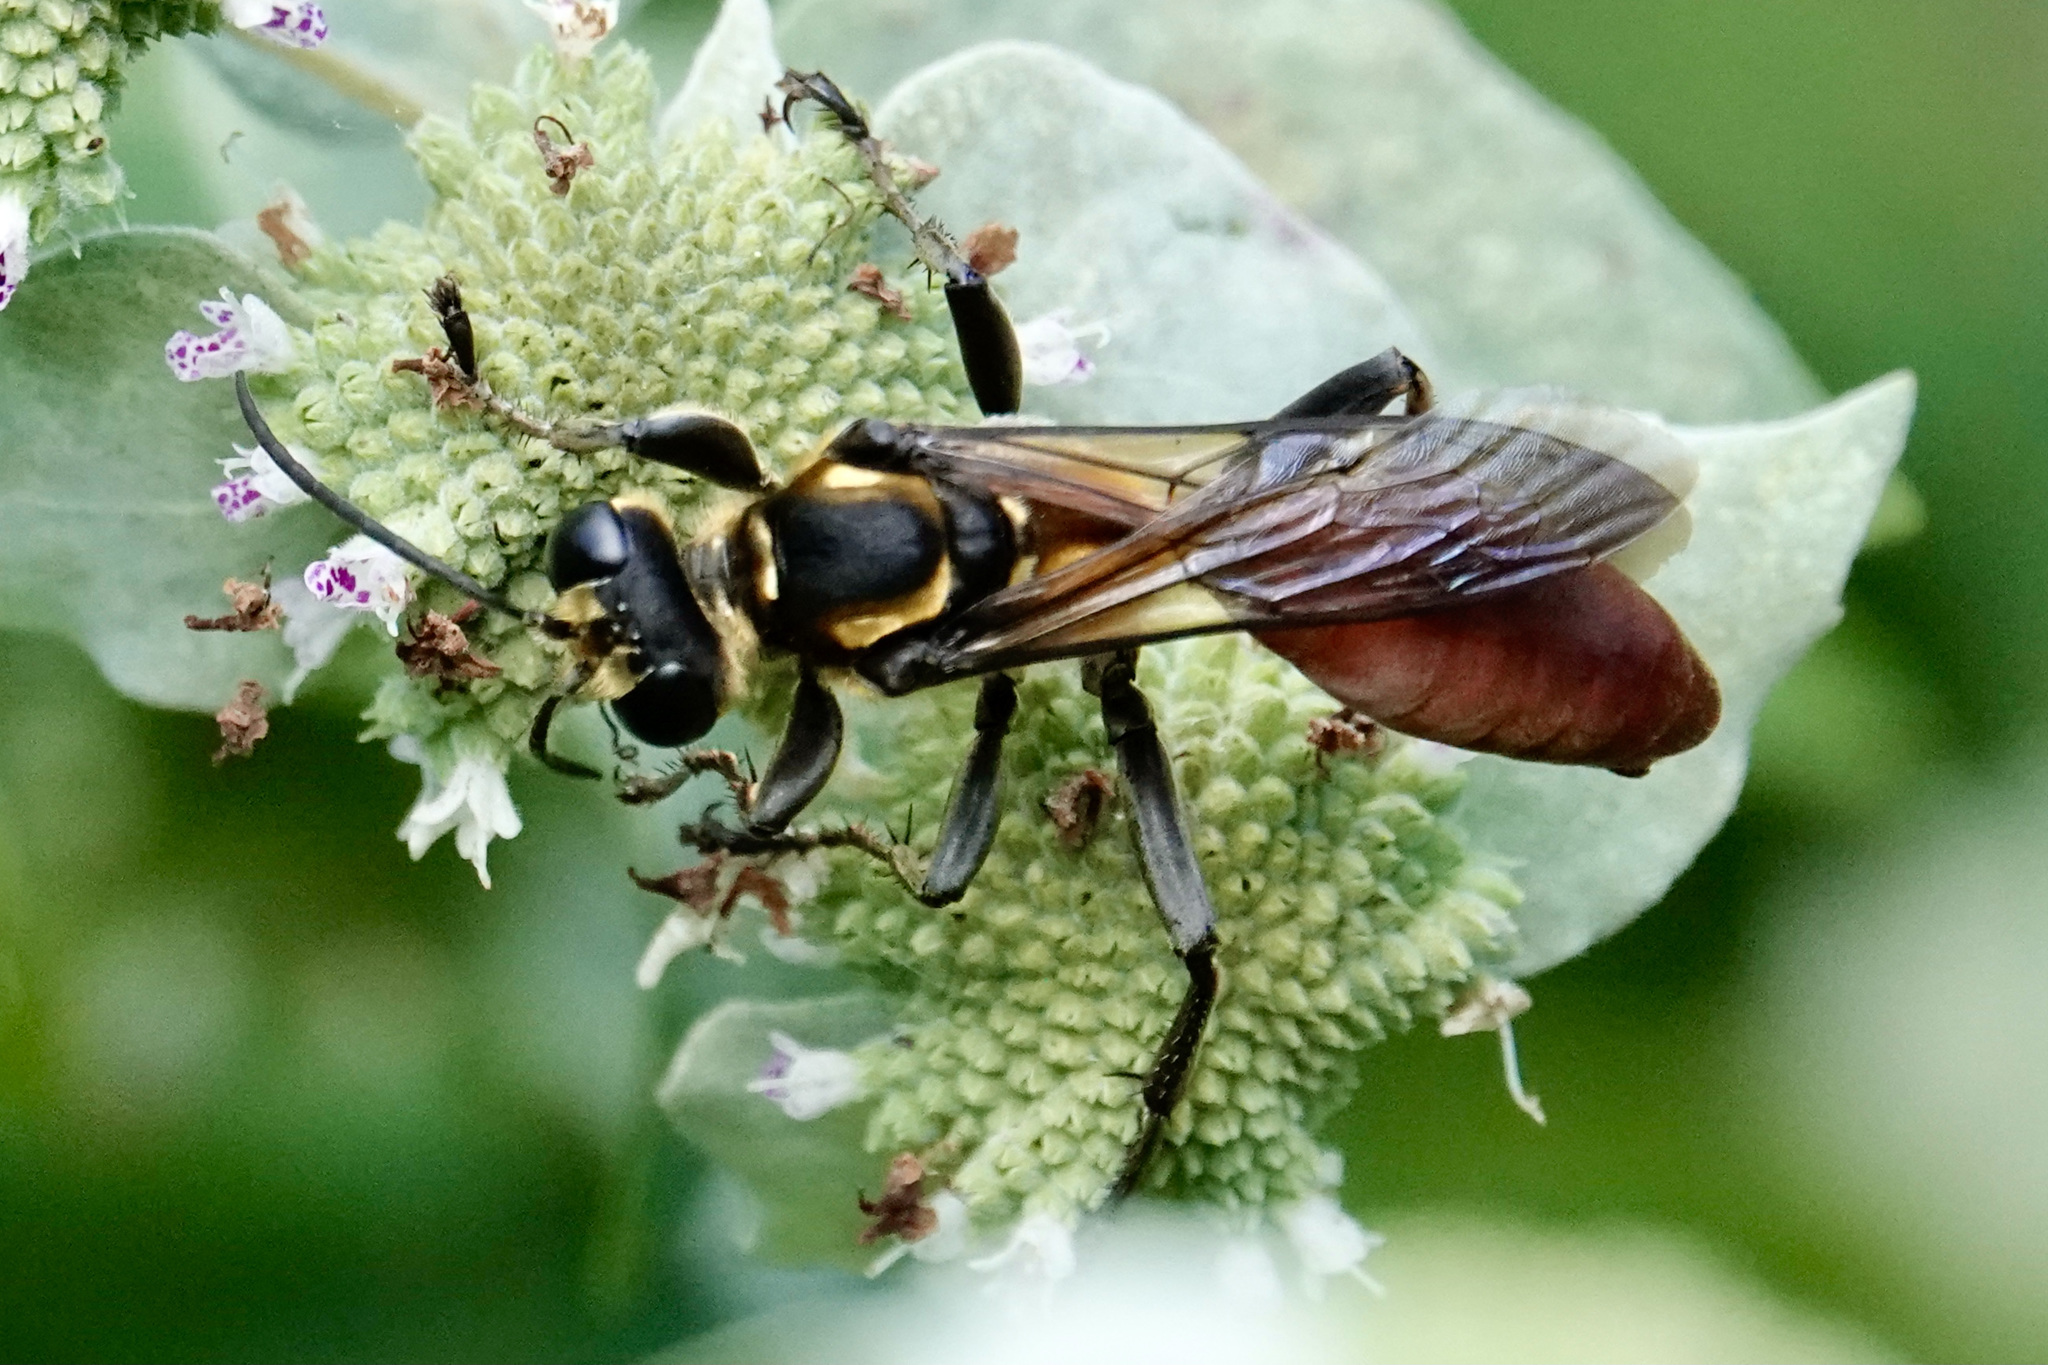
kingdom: Animalia
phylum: Arthropoda
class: Insecta
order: Hymenoptera
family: Sphecidae
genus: Sphex
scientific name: Sphex habenus
